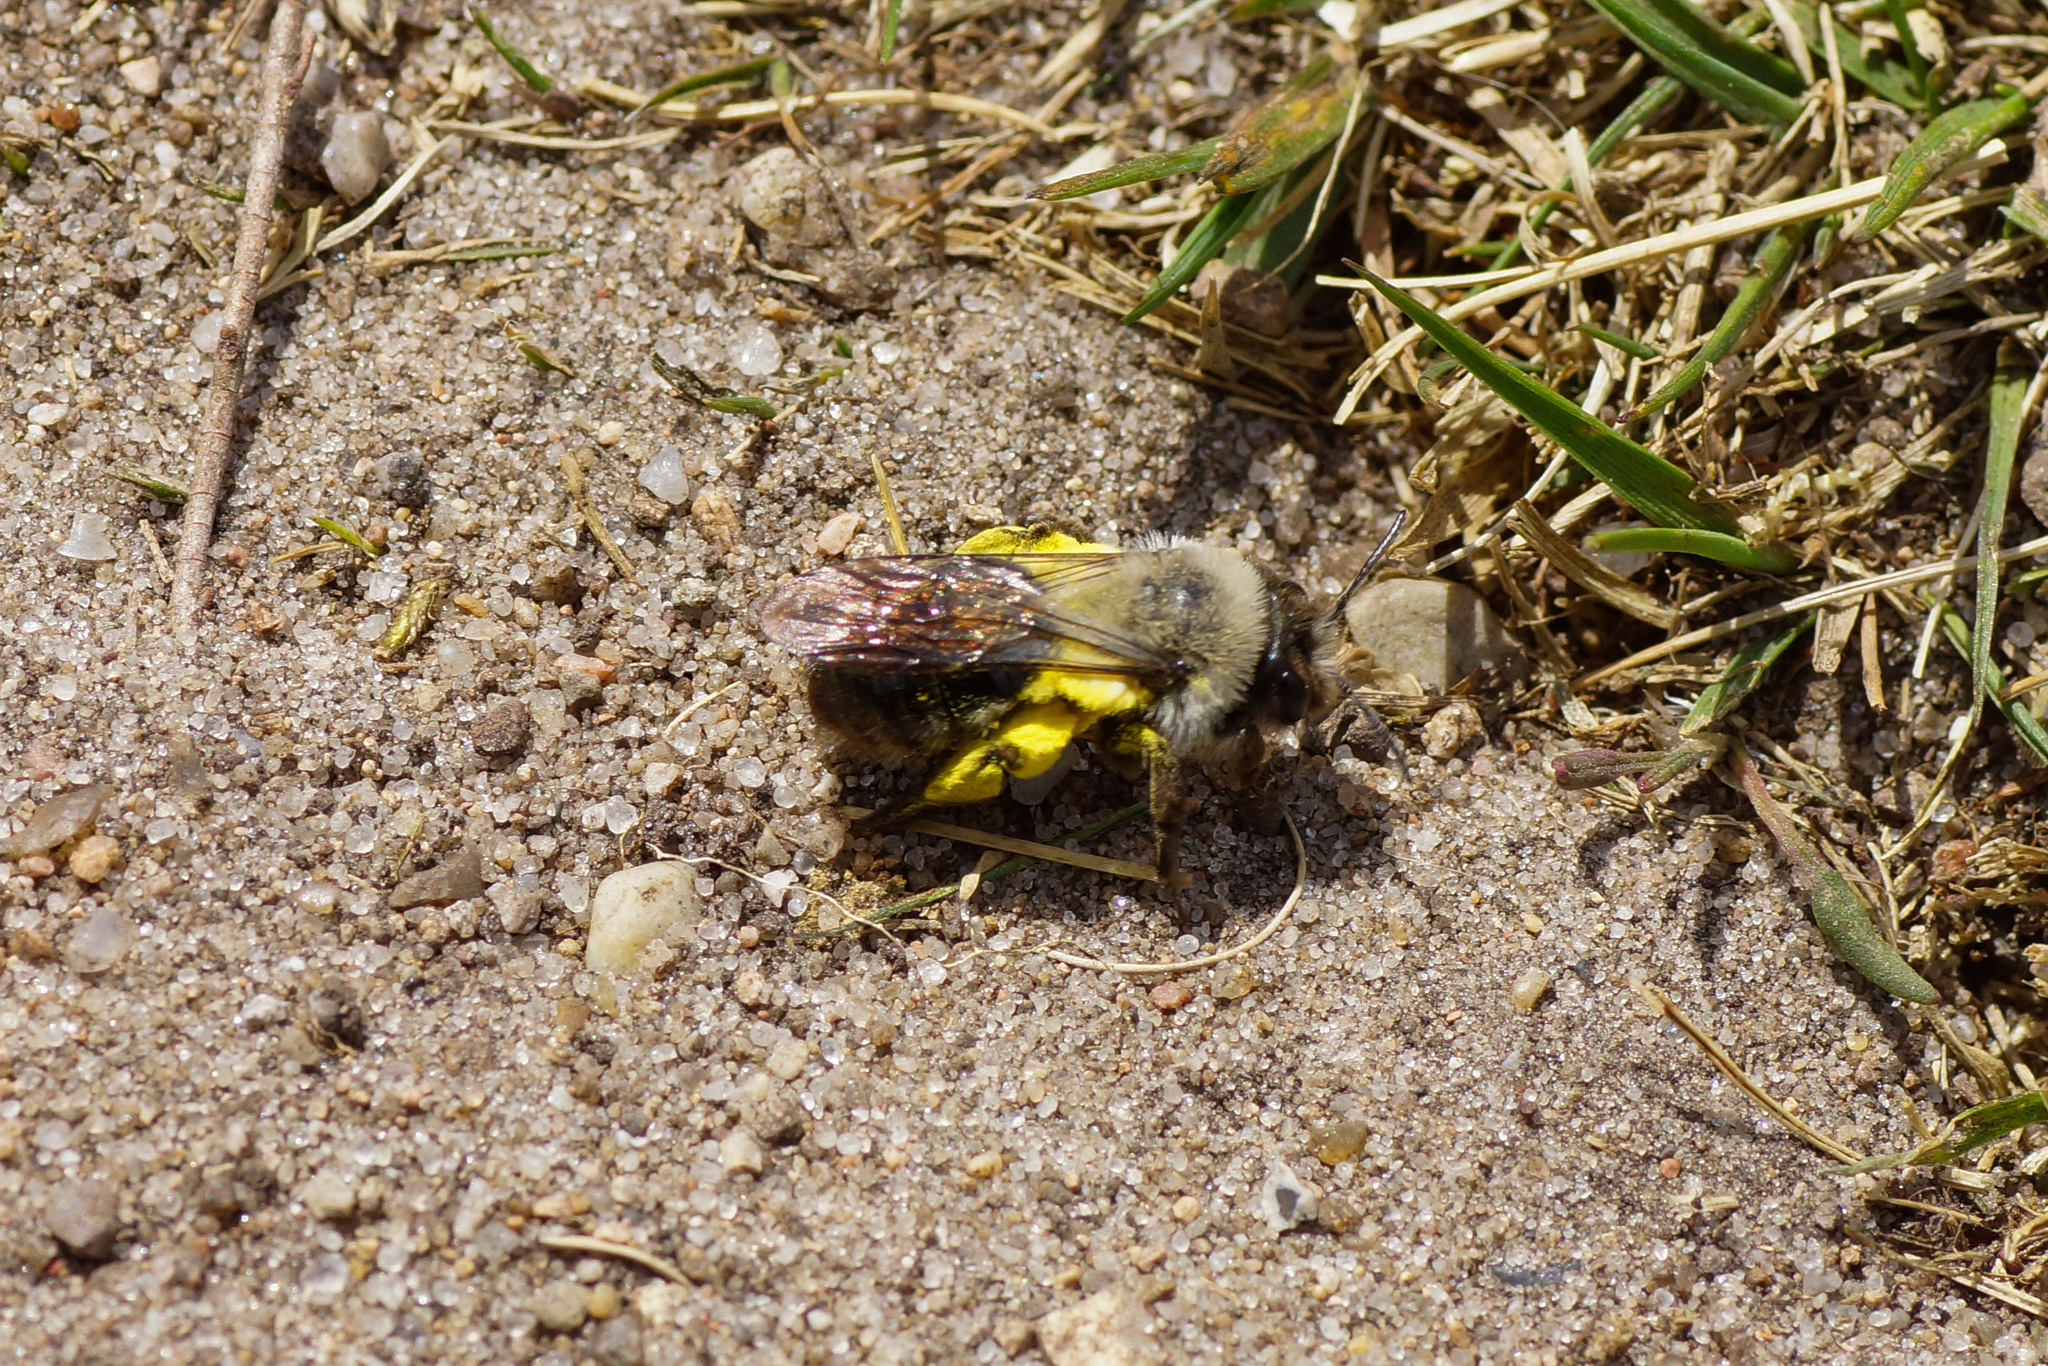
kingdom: Animalia
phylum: Arthropoda
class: Insecta
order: Hymenoptera
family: Andrenidae
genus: Andrena
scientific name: Andrena vaga
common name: Grey-backed mining bee
